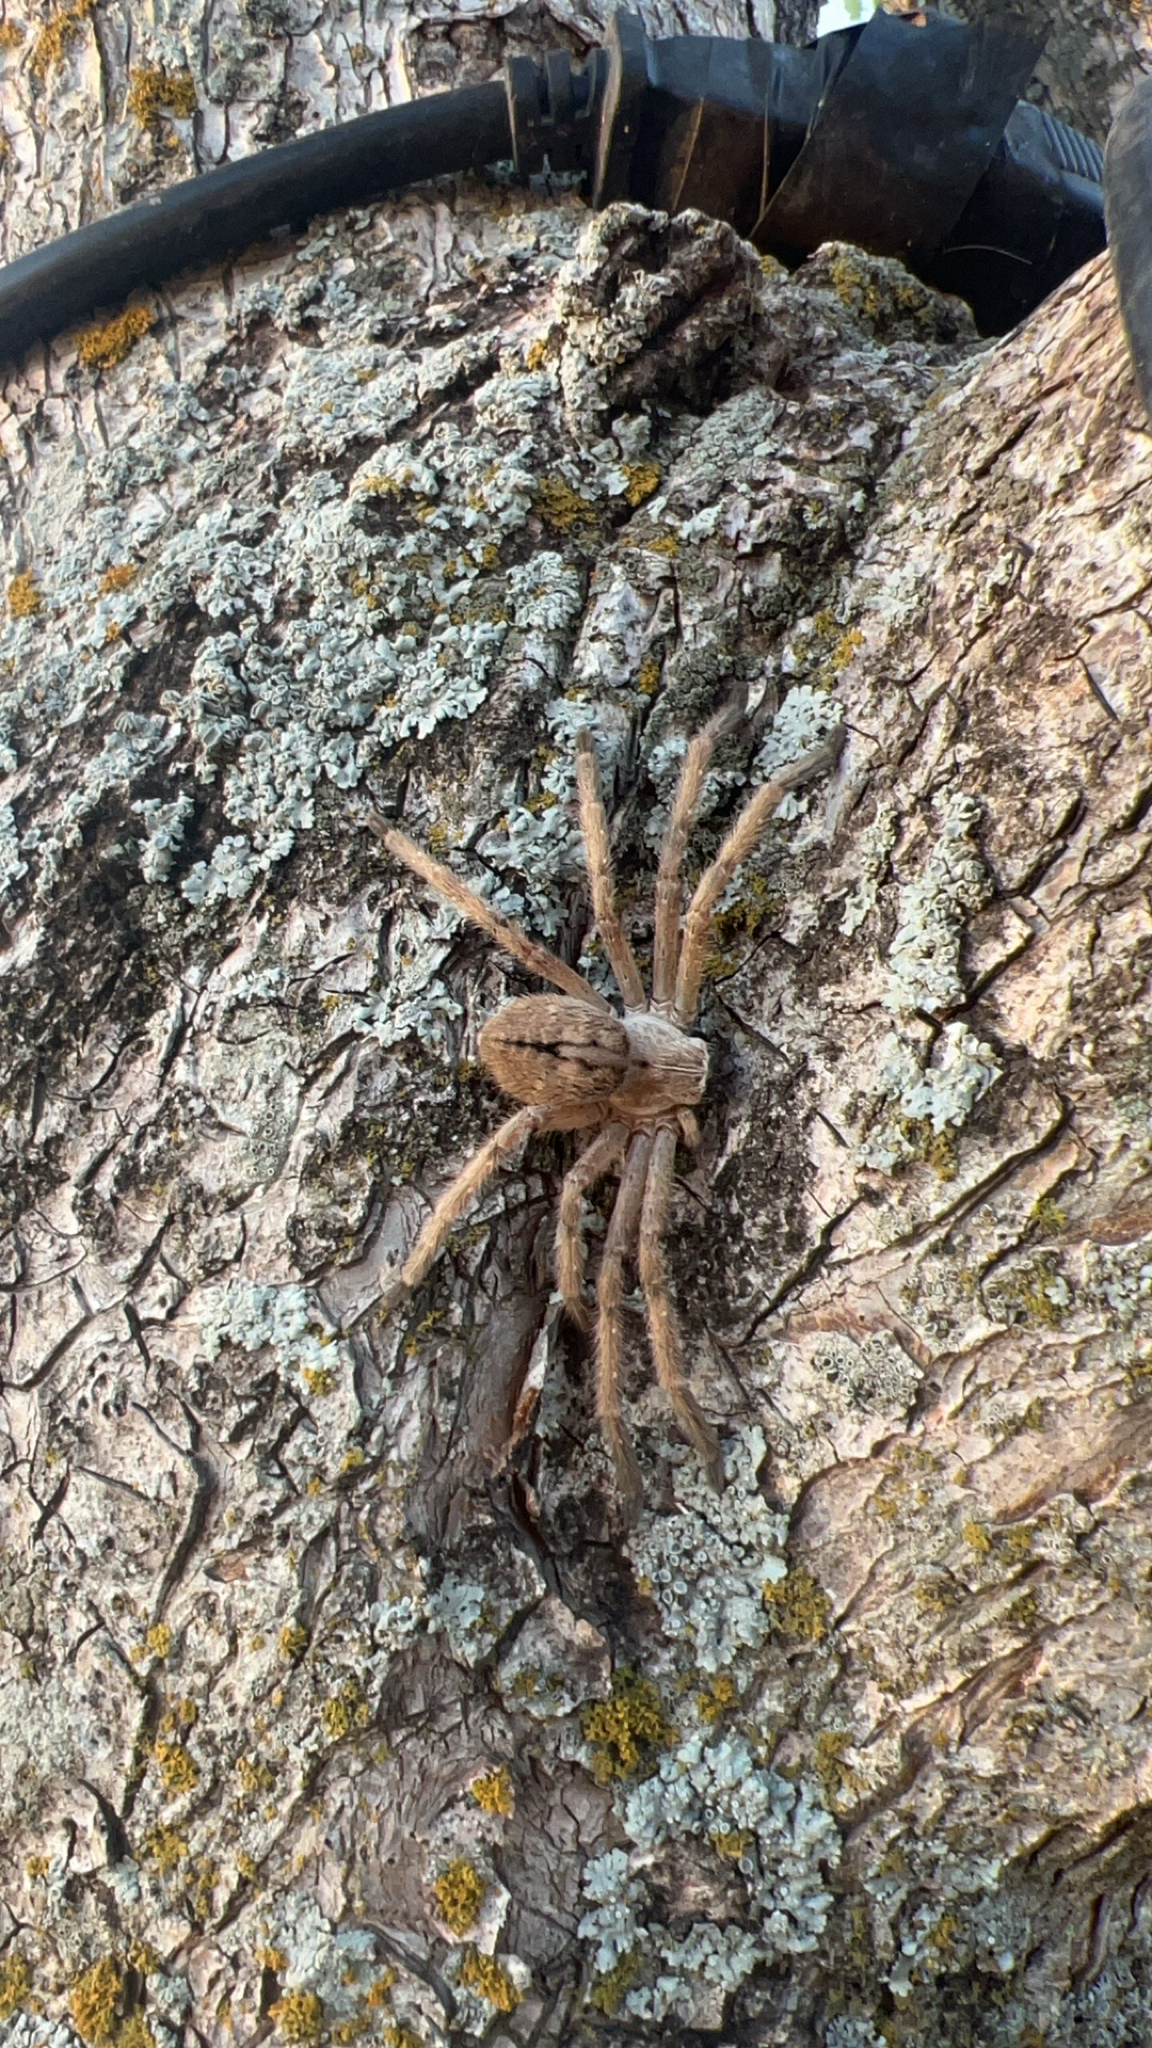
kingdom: Animalia
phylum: Arthropoda
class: Arachnida
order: Araneae
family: Sparassidae
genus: Olios
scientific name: Olios giganteus
